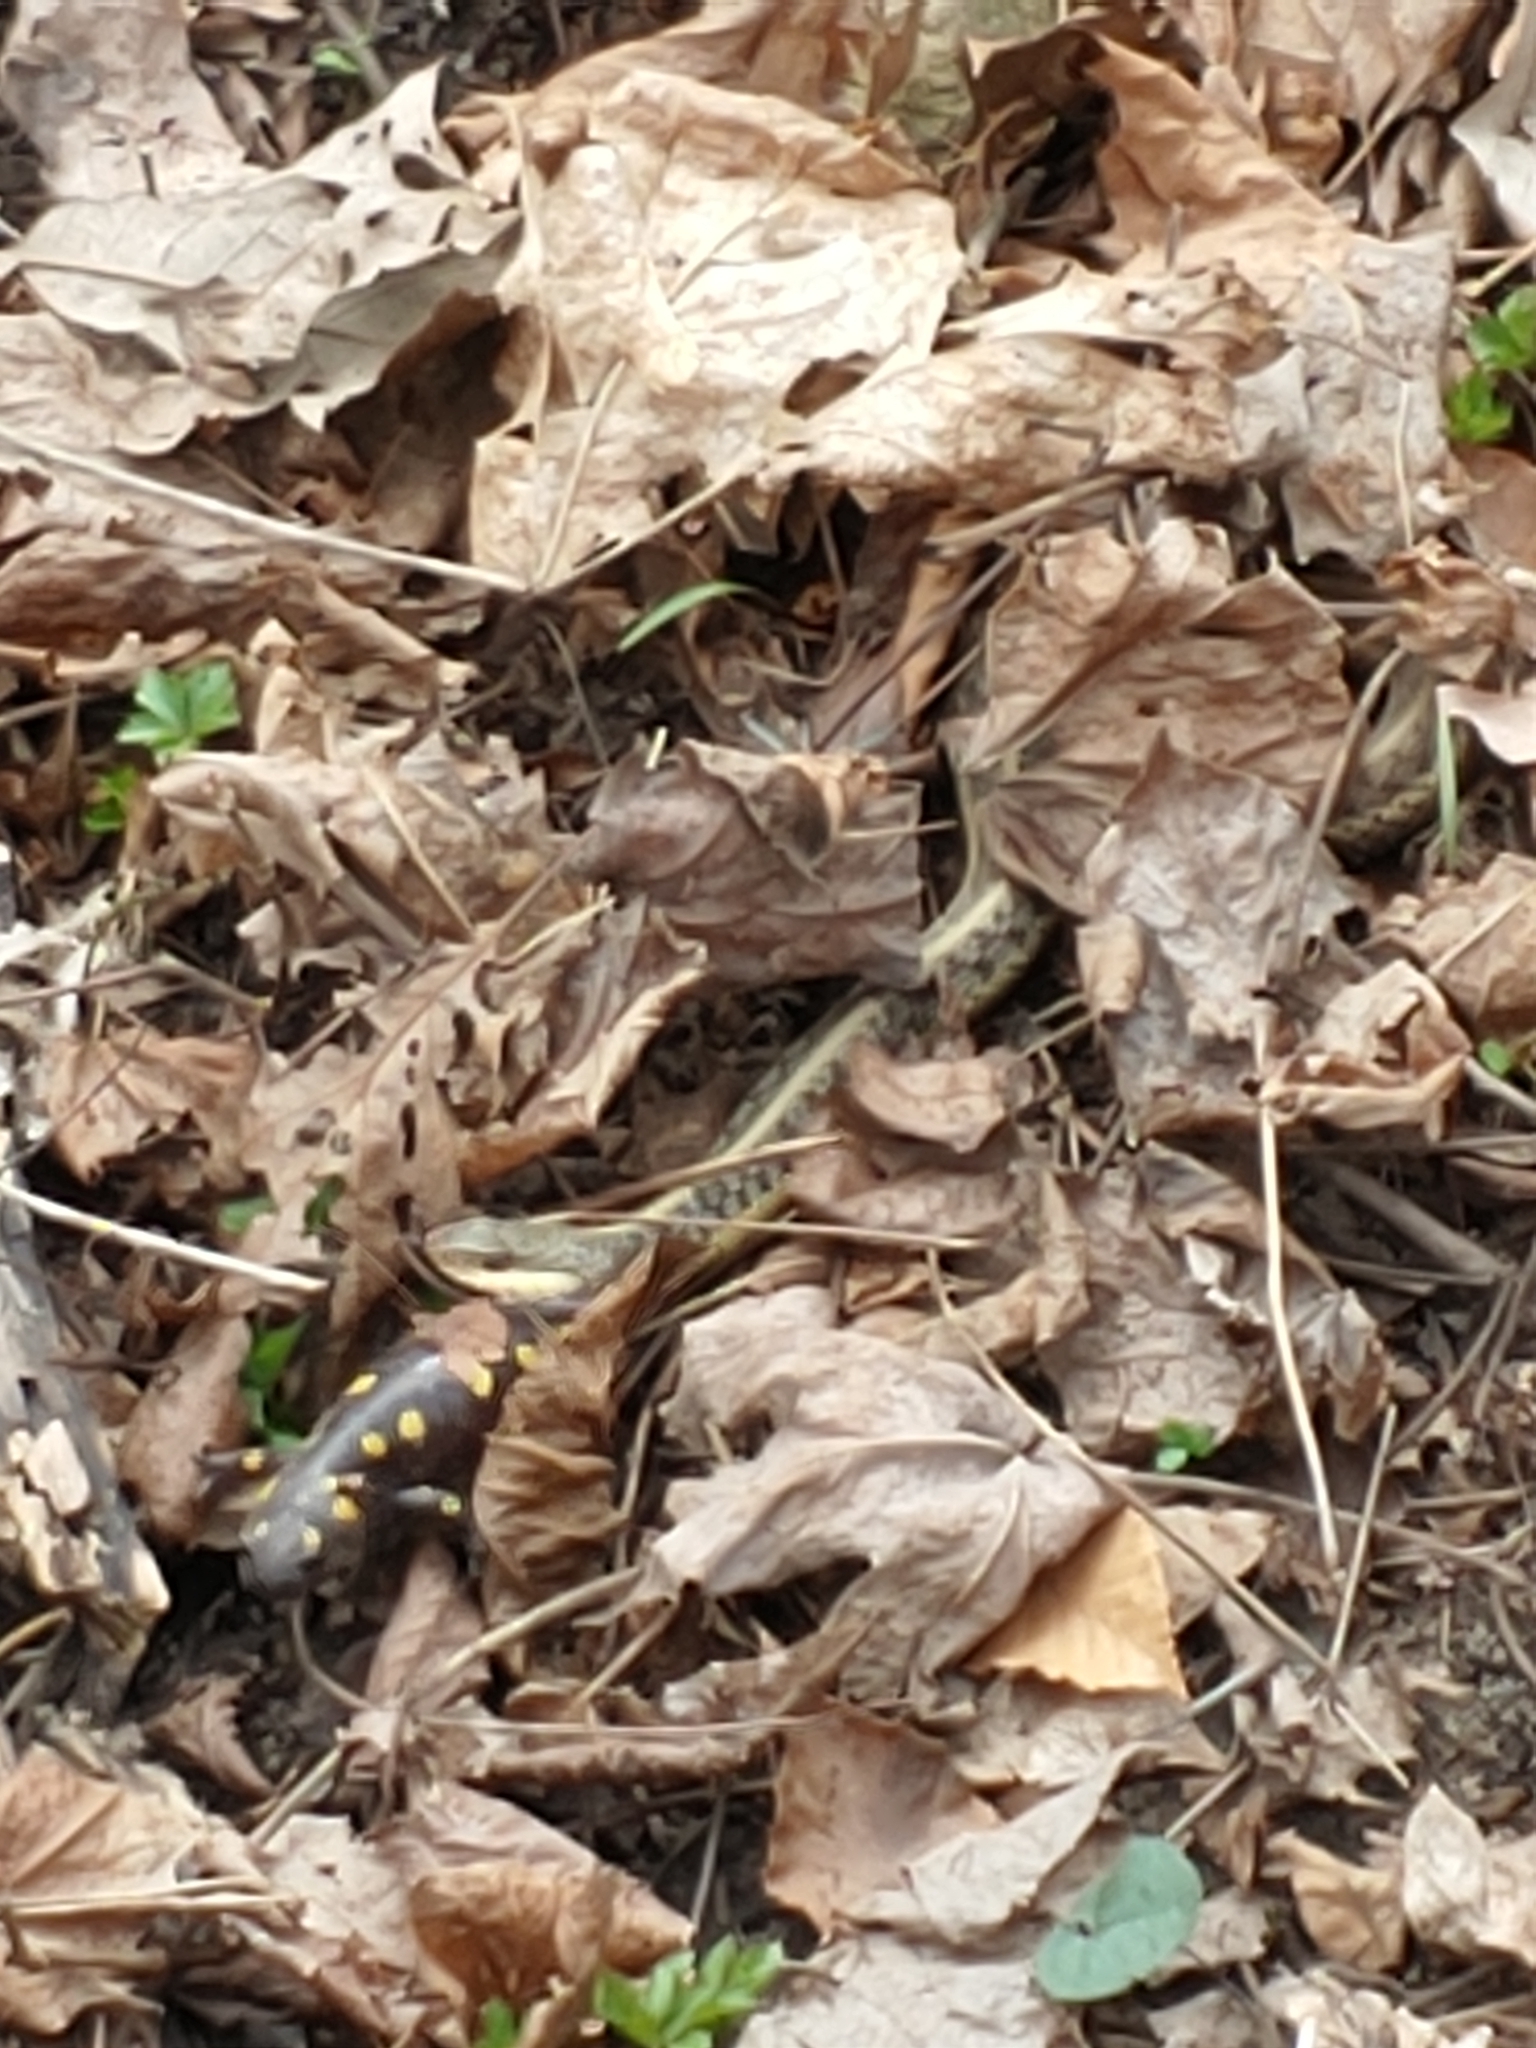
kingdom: Animalia
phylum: Chordata
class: Squamata
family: Colubridae
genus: Thamnophis
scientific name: Thamnophis sirtalis
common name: Common garter snake
